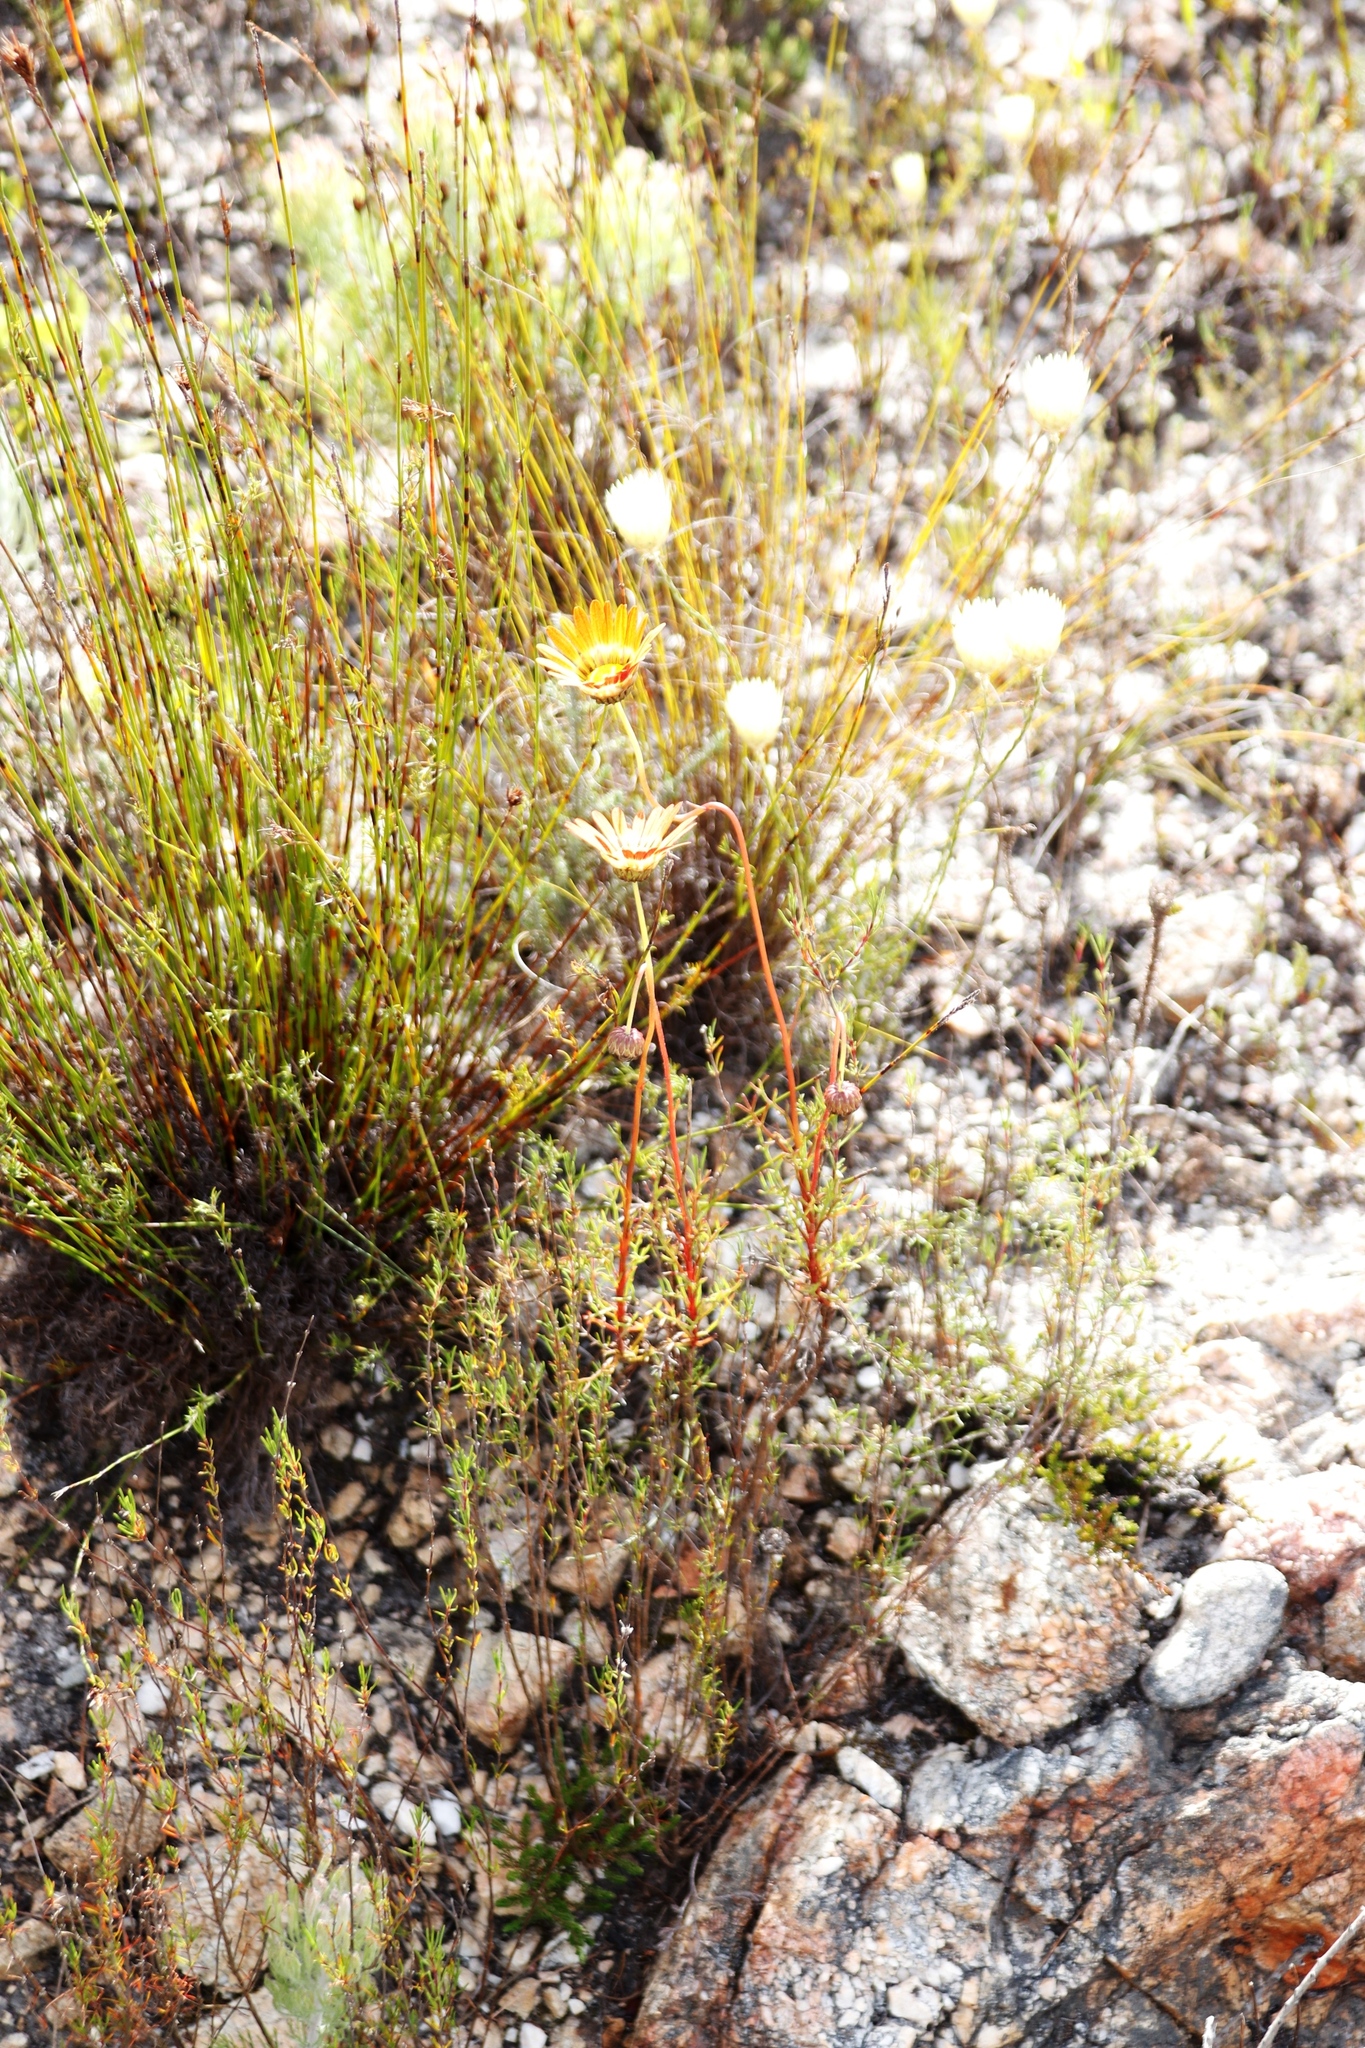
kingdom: Plantae
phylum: Tracheophyta
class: Magnoliopsida
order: Asterales
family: Asteraceae
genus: Ursinia
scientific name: Ursinia oreogena
